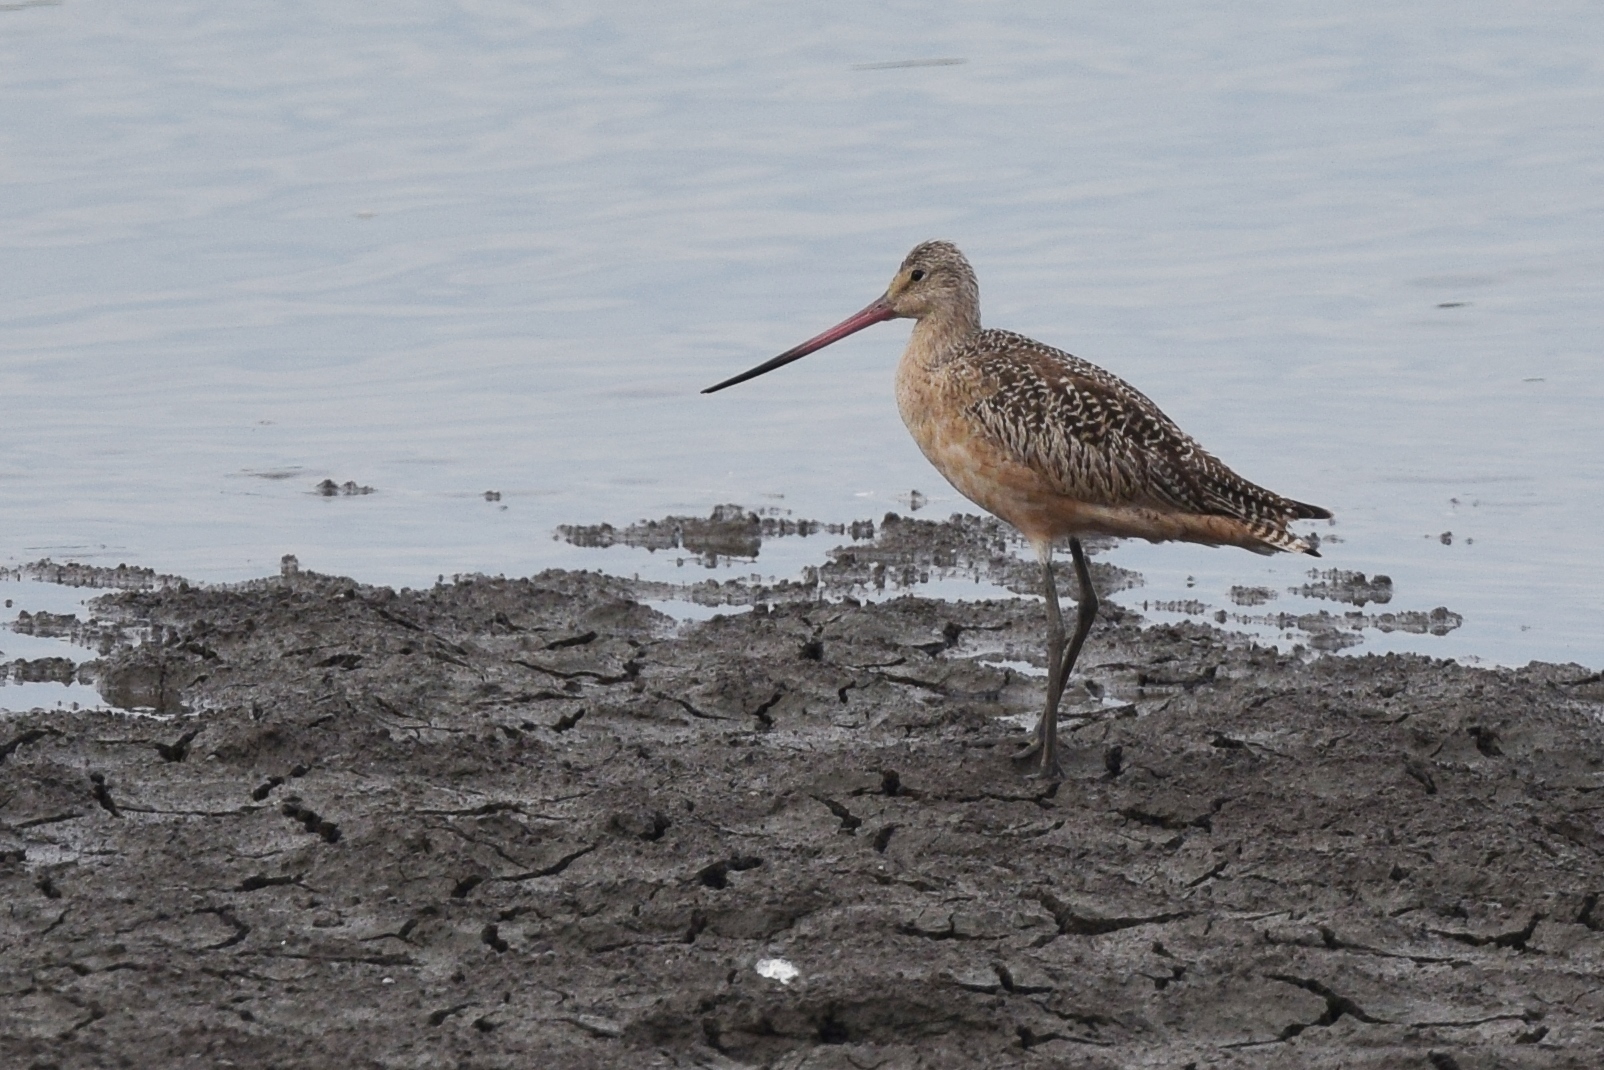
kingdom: Animalia
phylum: Chordata
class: Aves
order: Charadriiformes
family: Scolopacidae
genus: Limosa
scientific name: Limosa fedoa
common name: Marbled godwit
